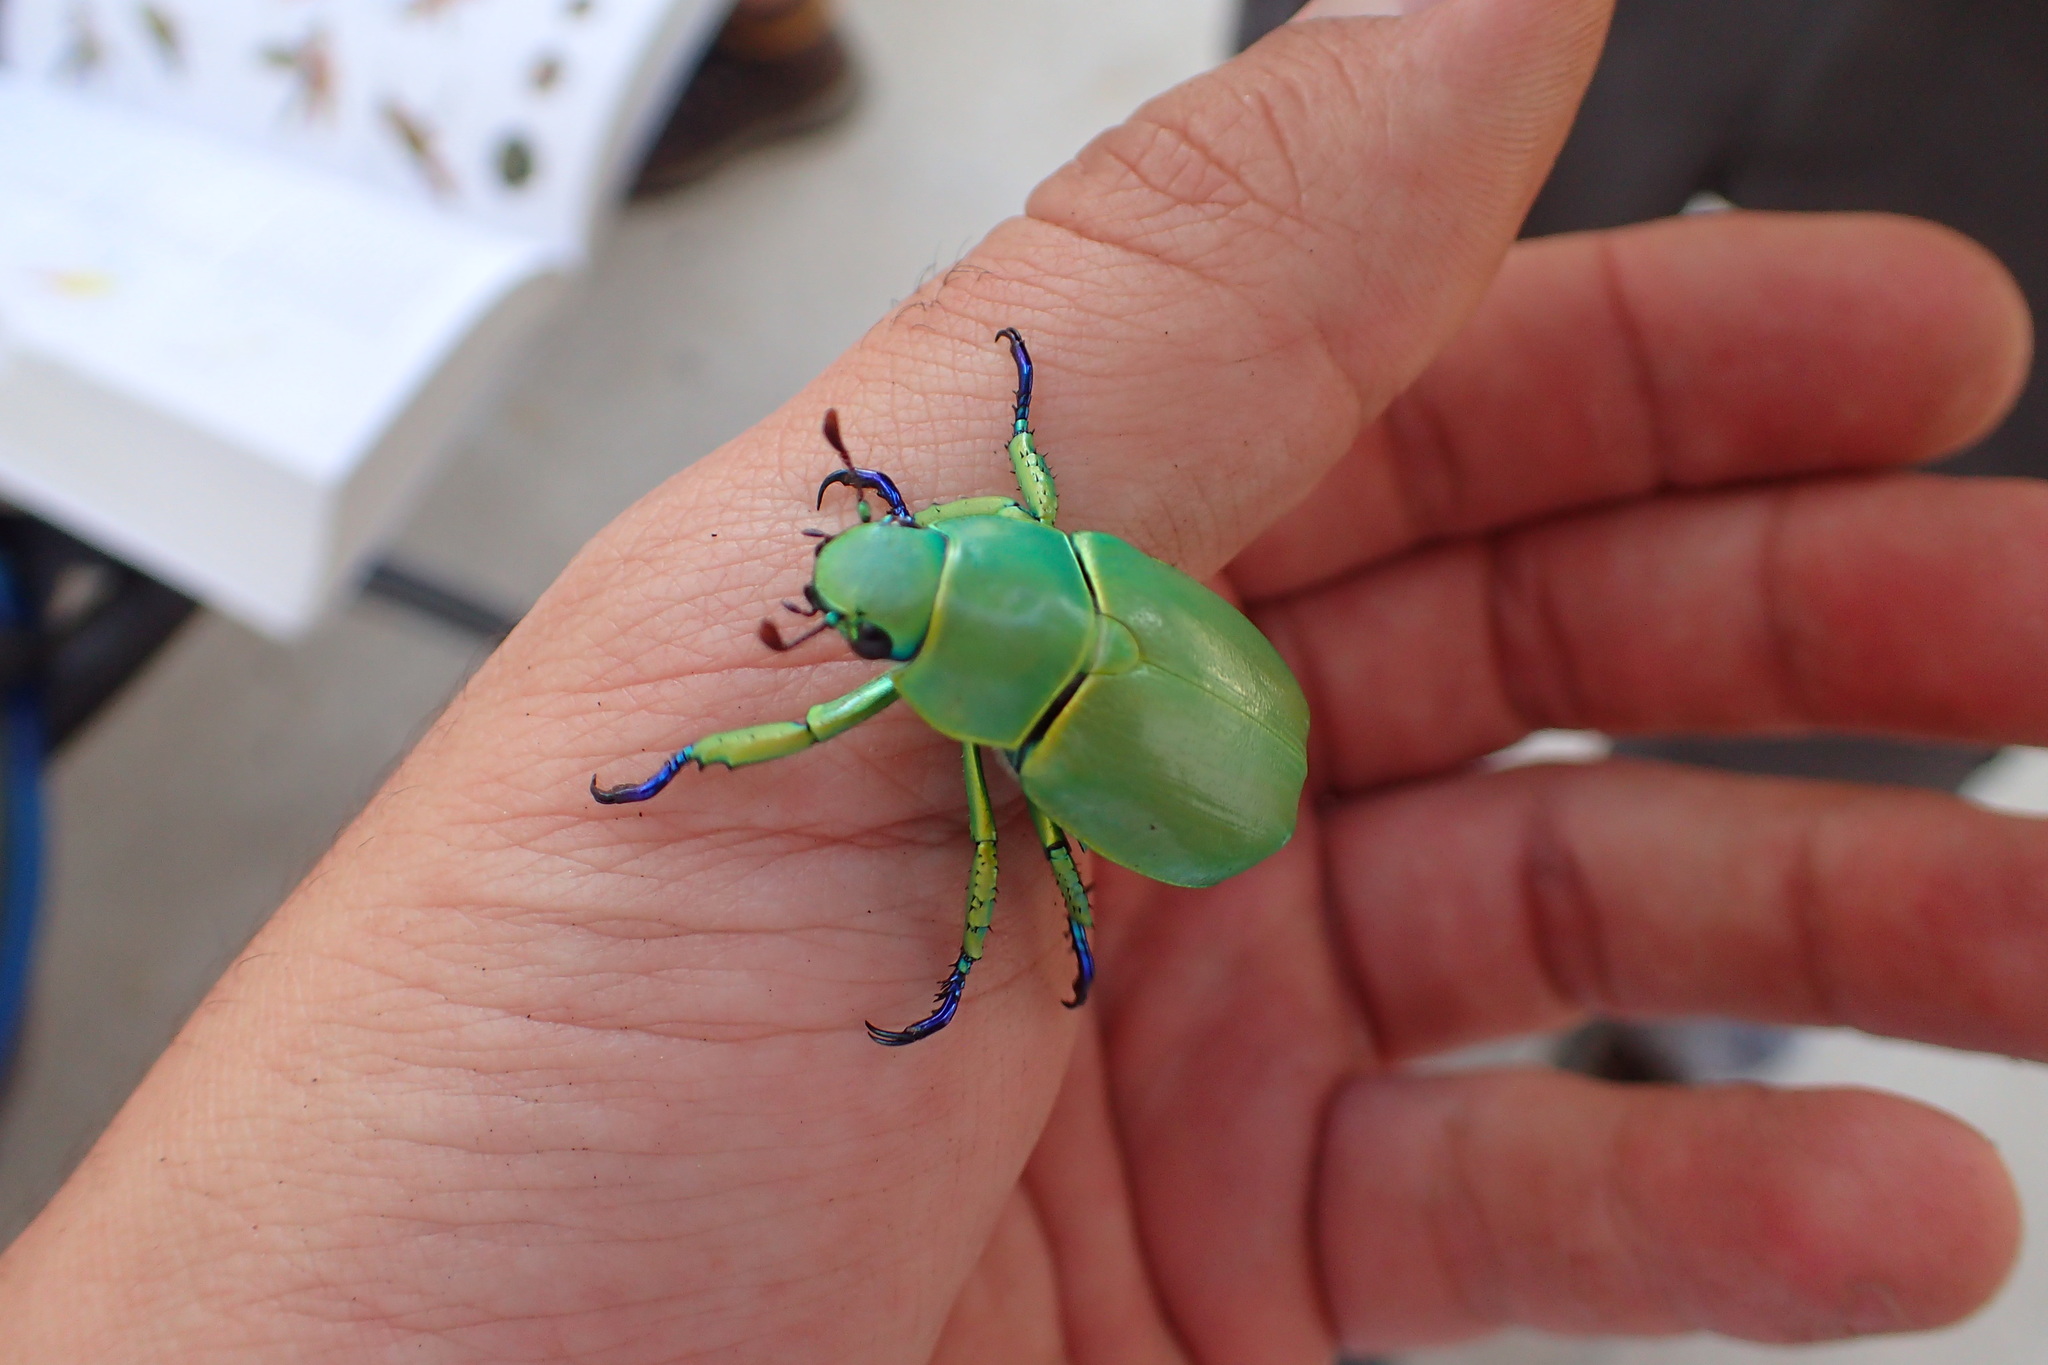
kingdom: Animalia
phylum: Arthropoda
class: Insecta
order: Coleoptera
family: Scarabaeidae
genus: Chrysina
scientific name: Chrysina woodi
